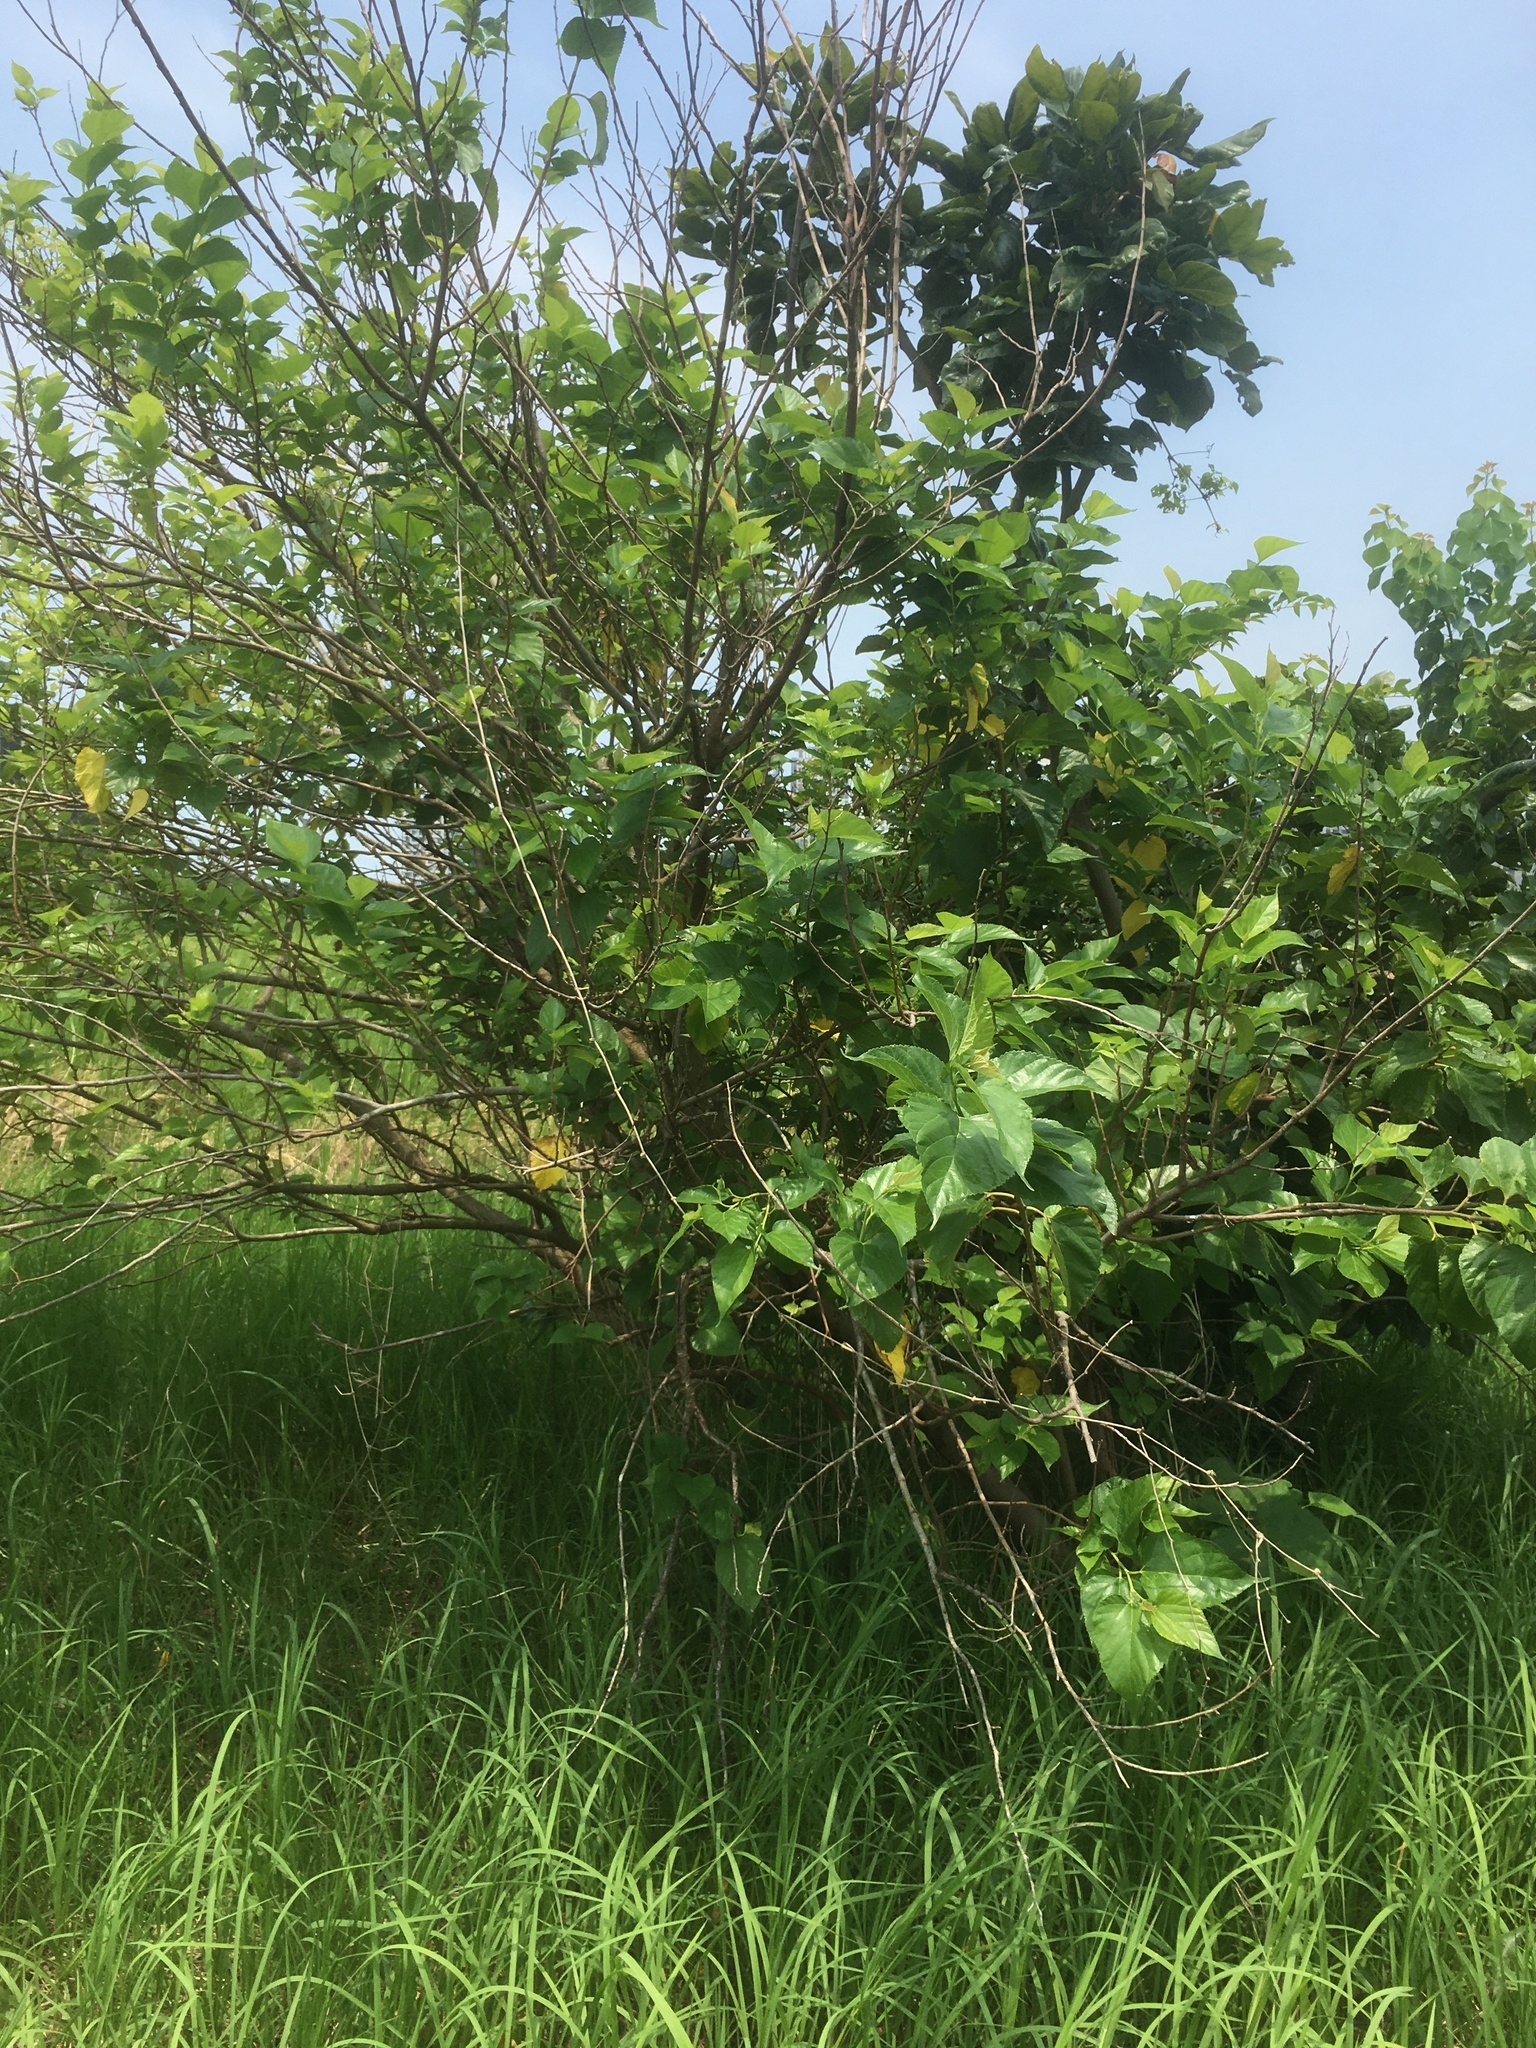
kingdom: Plantae
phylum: Tracheophyta
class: Magnoliopsida
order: Rosales
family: Moraceae
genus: Morus
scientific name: Morus indica
